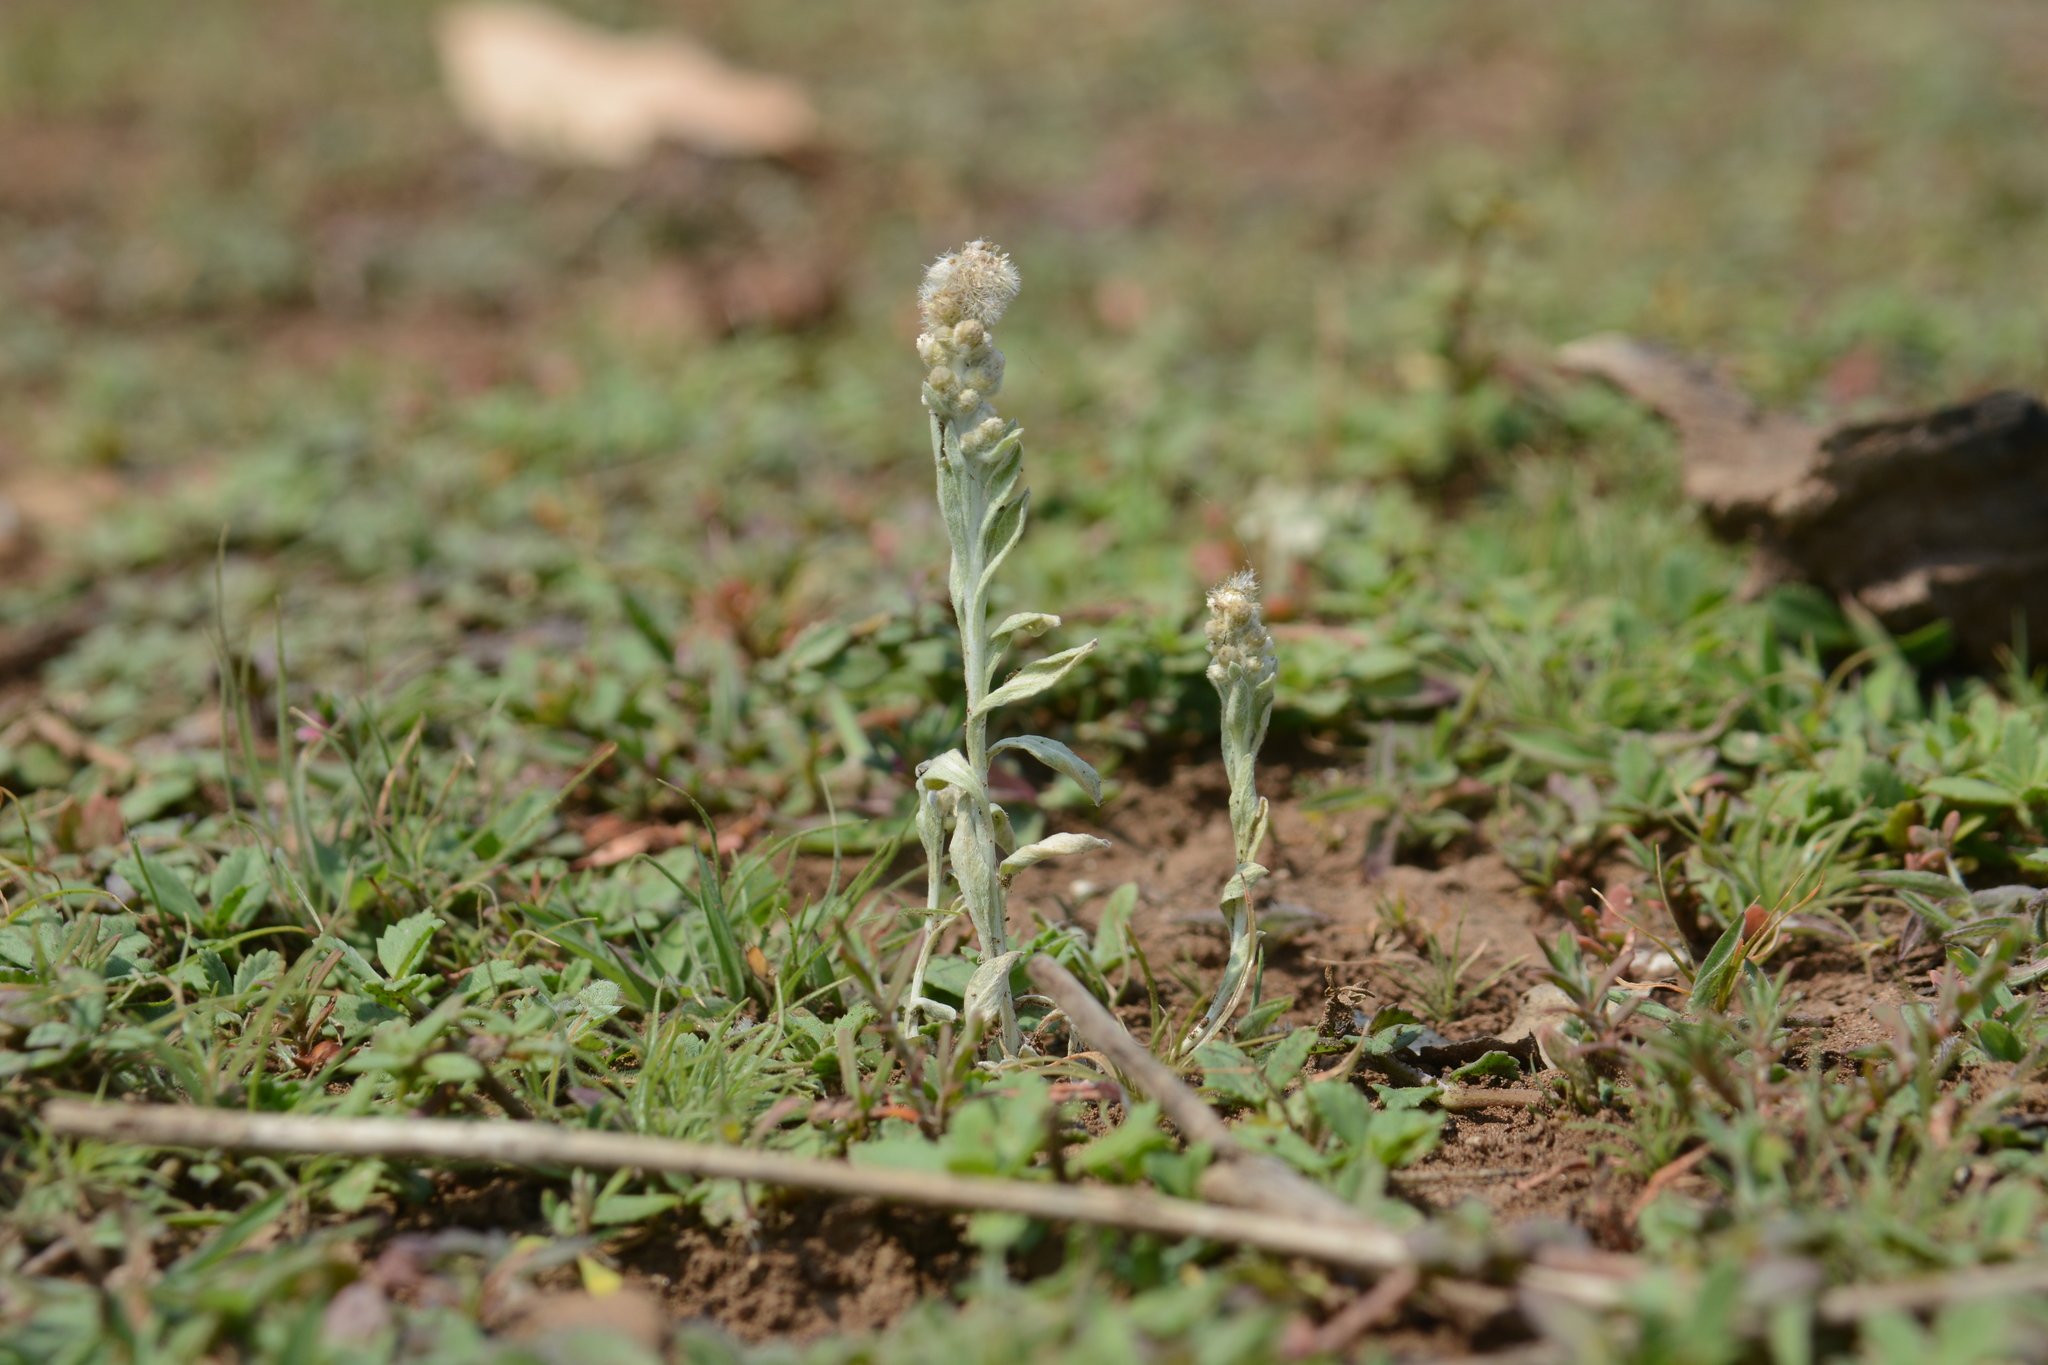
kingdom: Plantae
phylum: Tracheophyta
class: Magnoliopsida
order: Asterales
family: Asteraceae
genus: Helichrysum
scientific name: Helichrysum luteoalbum
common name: Daisy
